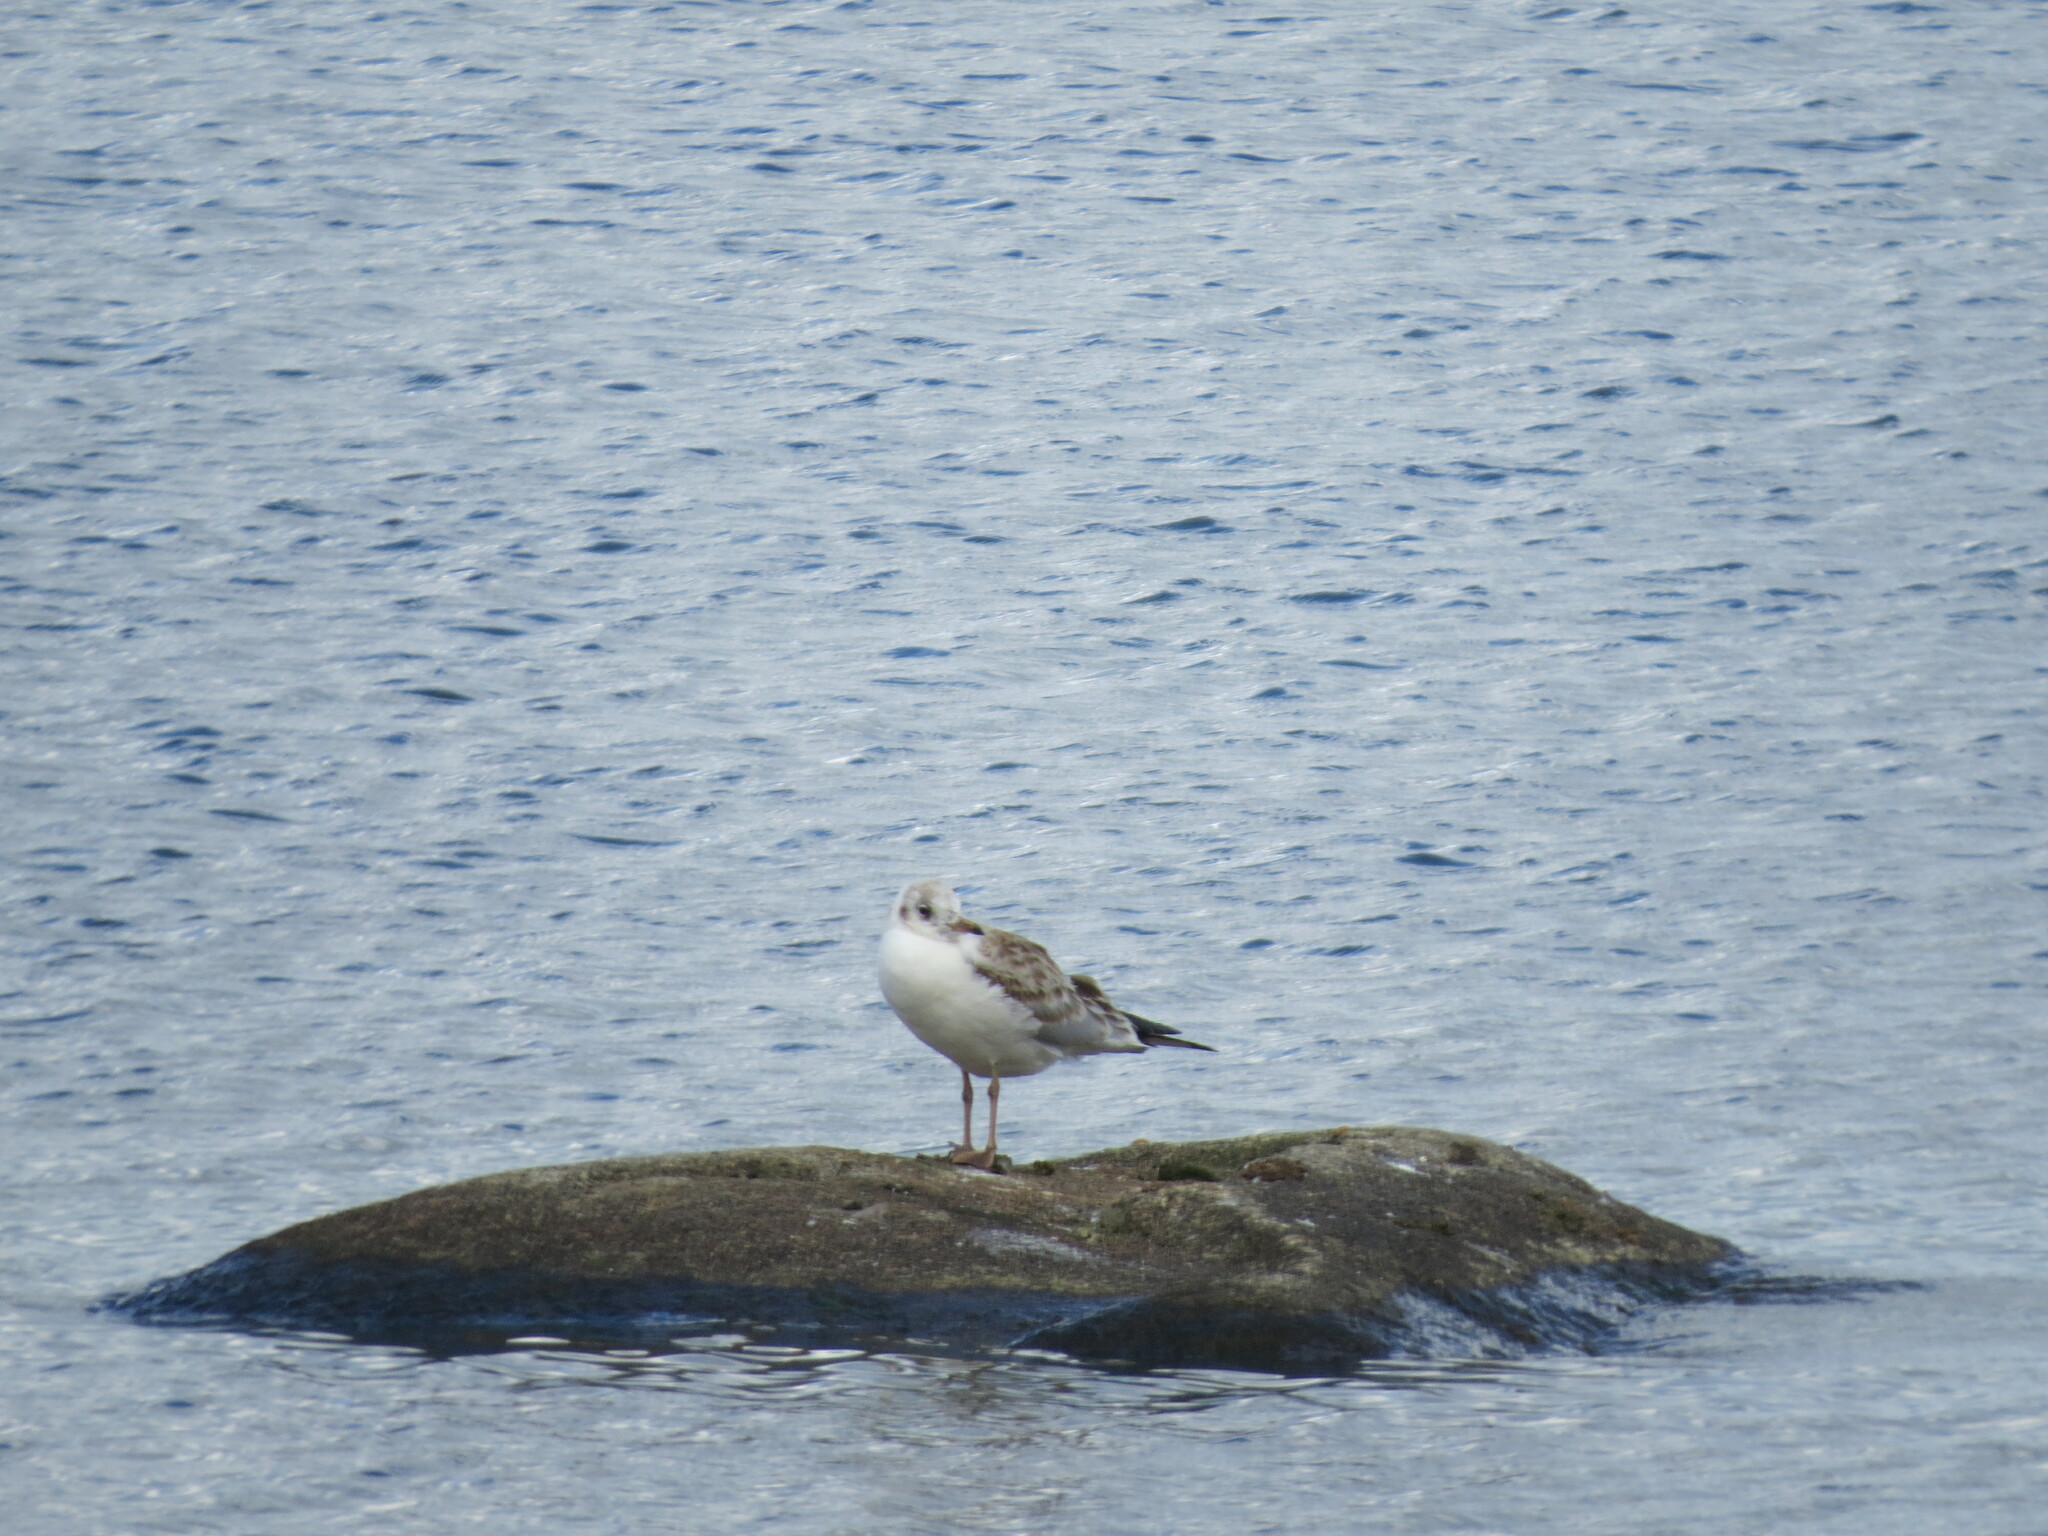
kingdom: Animalia
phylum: Chordata
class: Aves
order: Charadriiformes
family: Laridae
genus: Chroicocephalus
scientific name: Chroicocephalus ridibundus
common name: Black-headed gull
